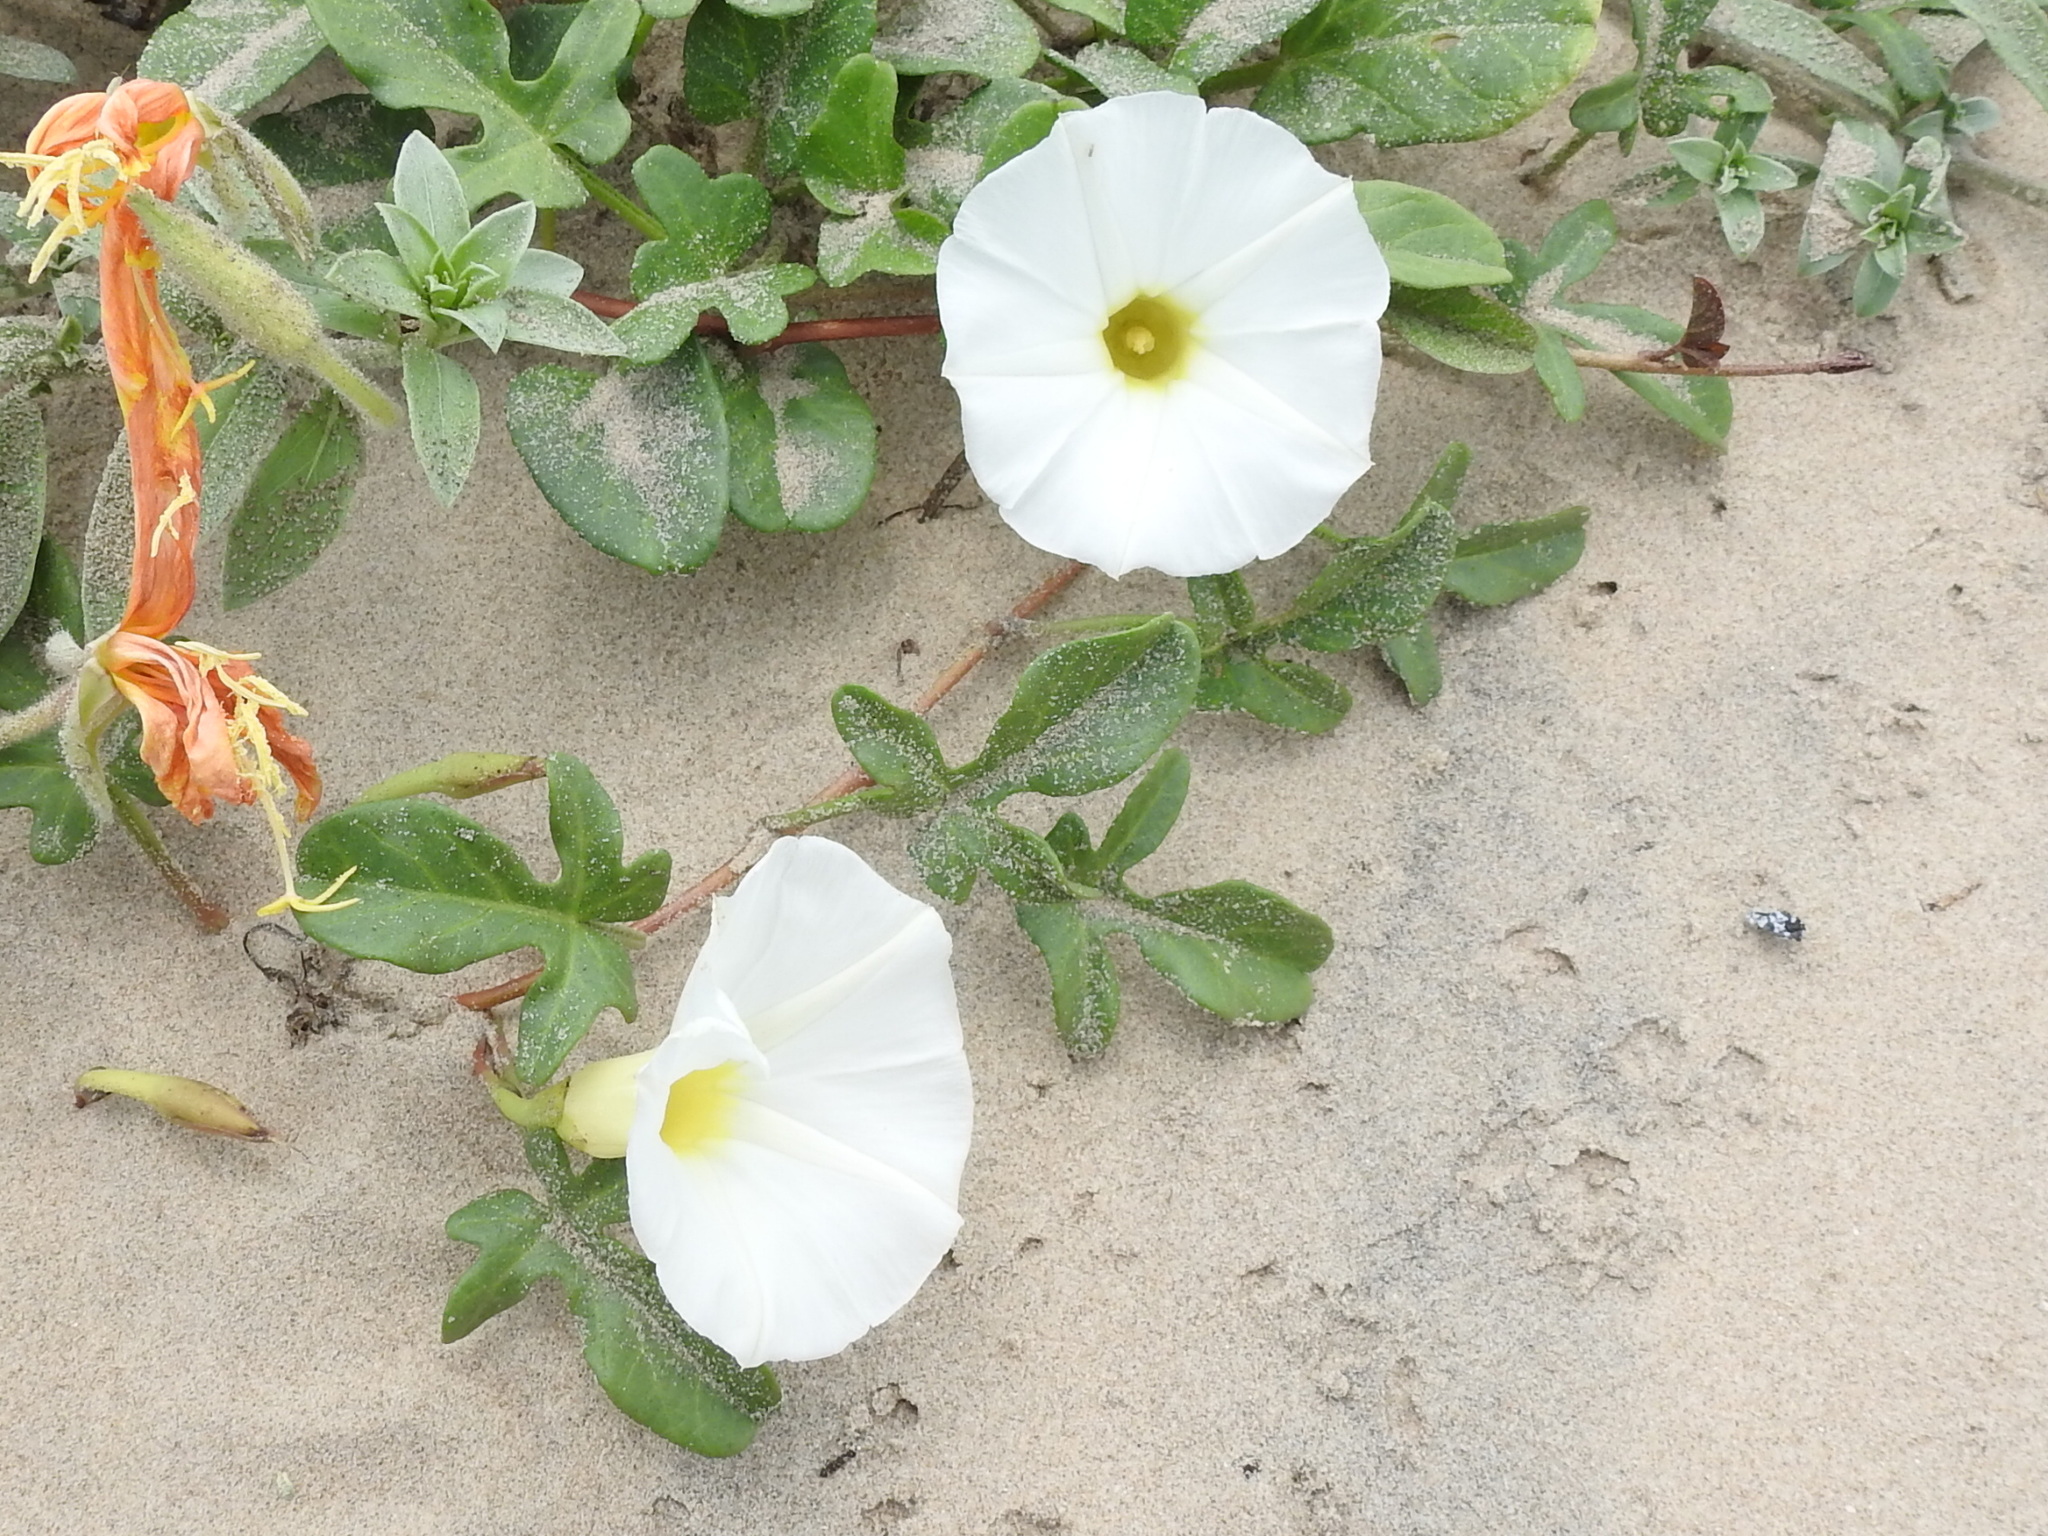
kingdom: Plantae
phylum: Tracheophyta
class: Magnoliopsida
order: Solanales
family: Convolvulaceae
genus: Ipomoea
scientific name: Ipomoea imperati
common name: Fiddle-leaf morning-glory
